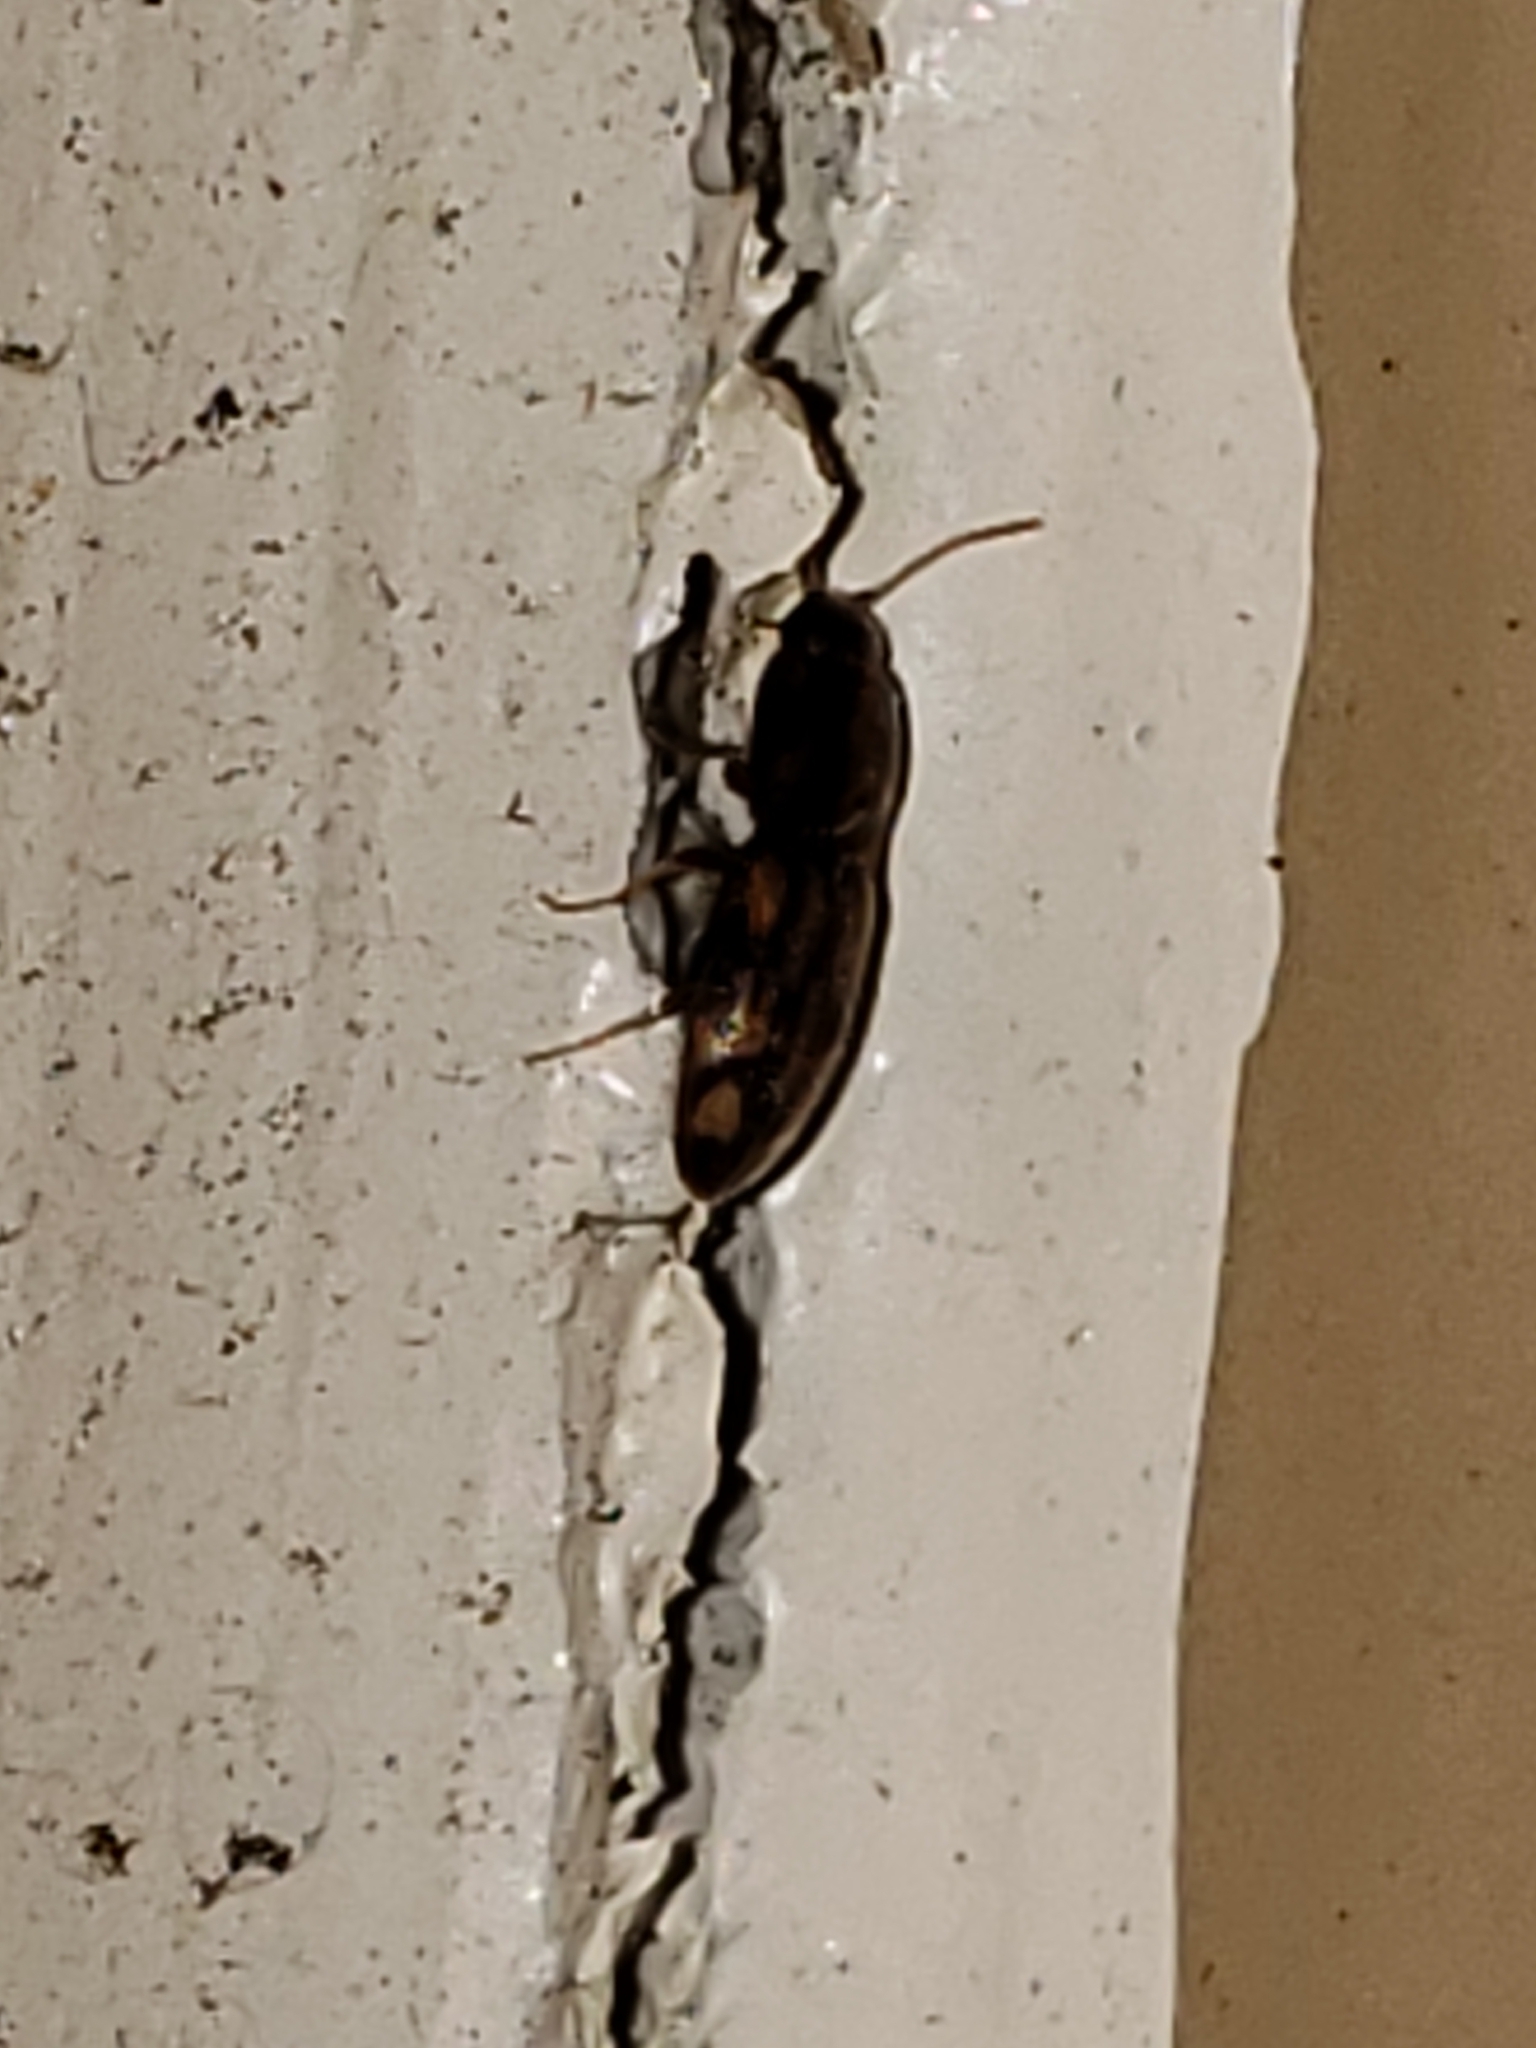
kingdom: Animalia
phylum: Arthropoda
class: Insecta
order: Coleoptera
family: Elateridae
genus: Monocrepidius
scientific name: Monocrepidius bellus
